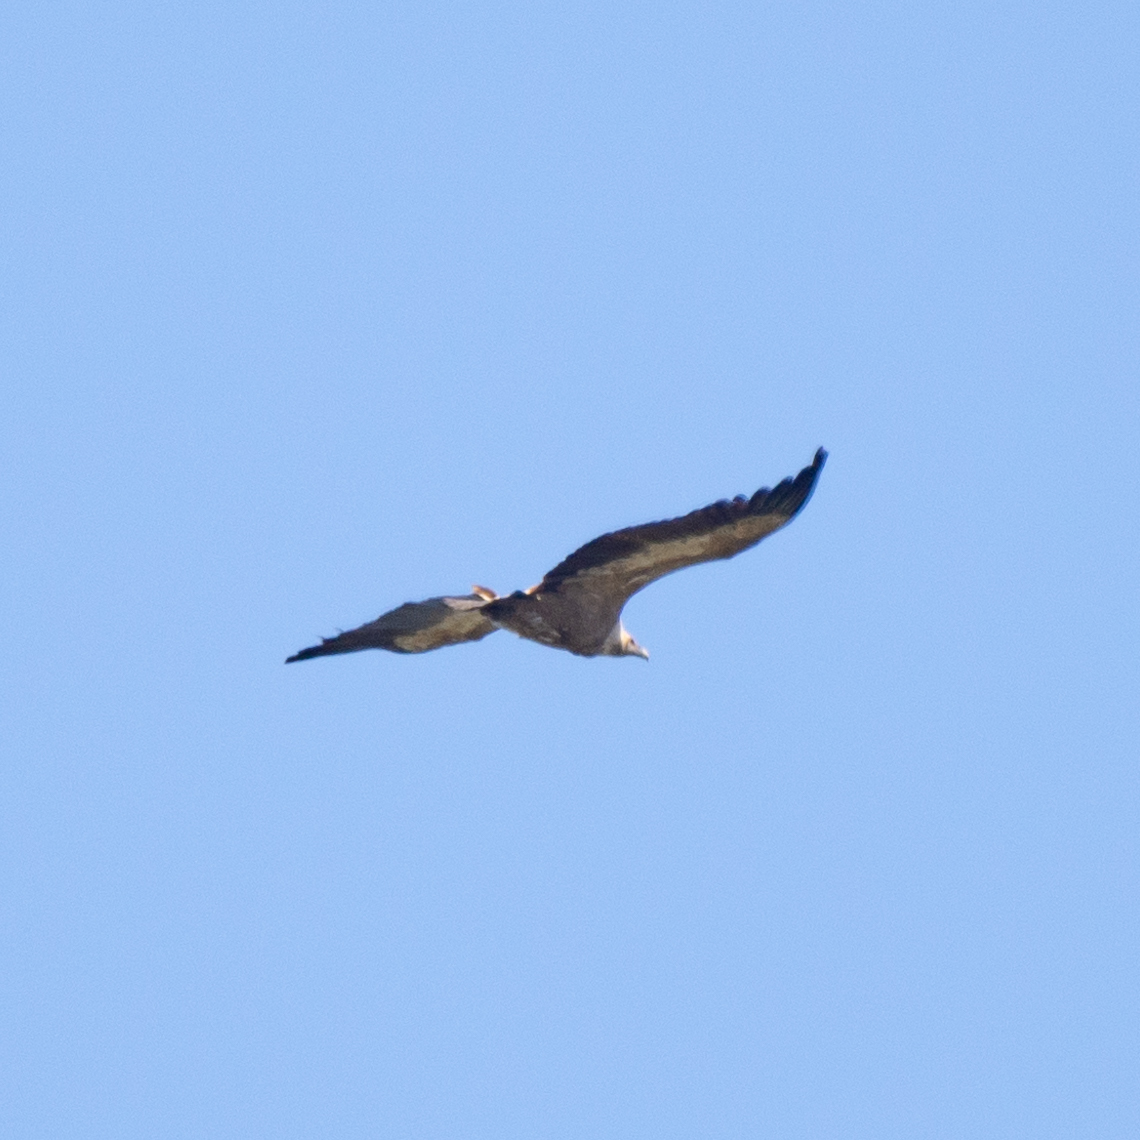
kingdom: Animalia
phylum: Chordata
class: Aves
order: Accipitriformes
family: Accipitridae
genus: Gyps
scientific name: Gyps fulvus
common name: Griffon vulture
